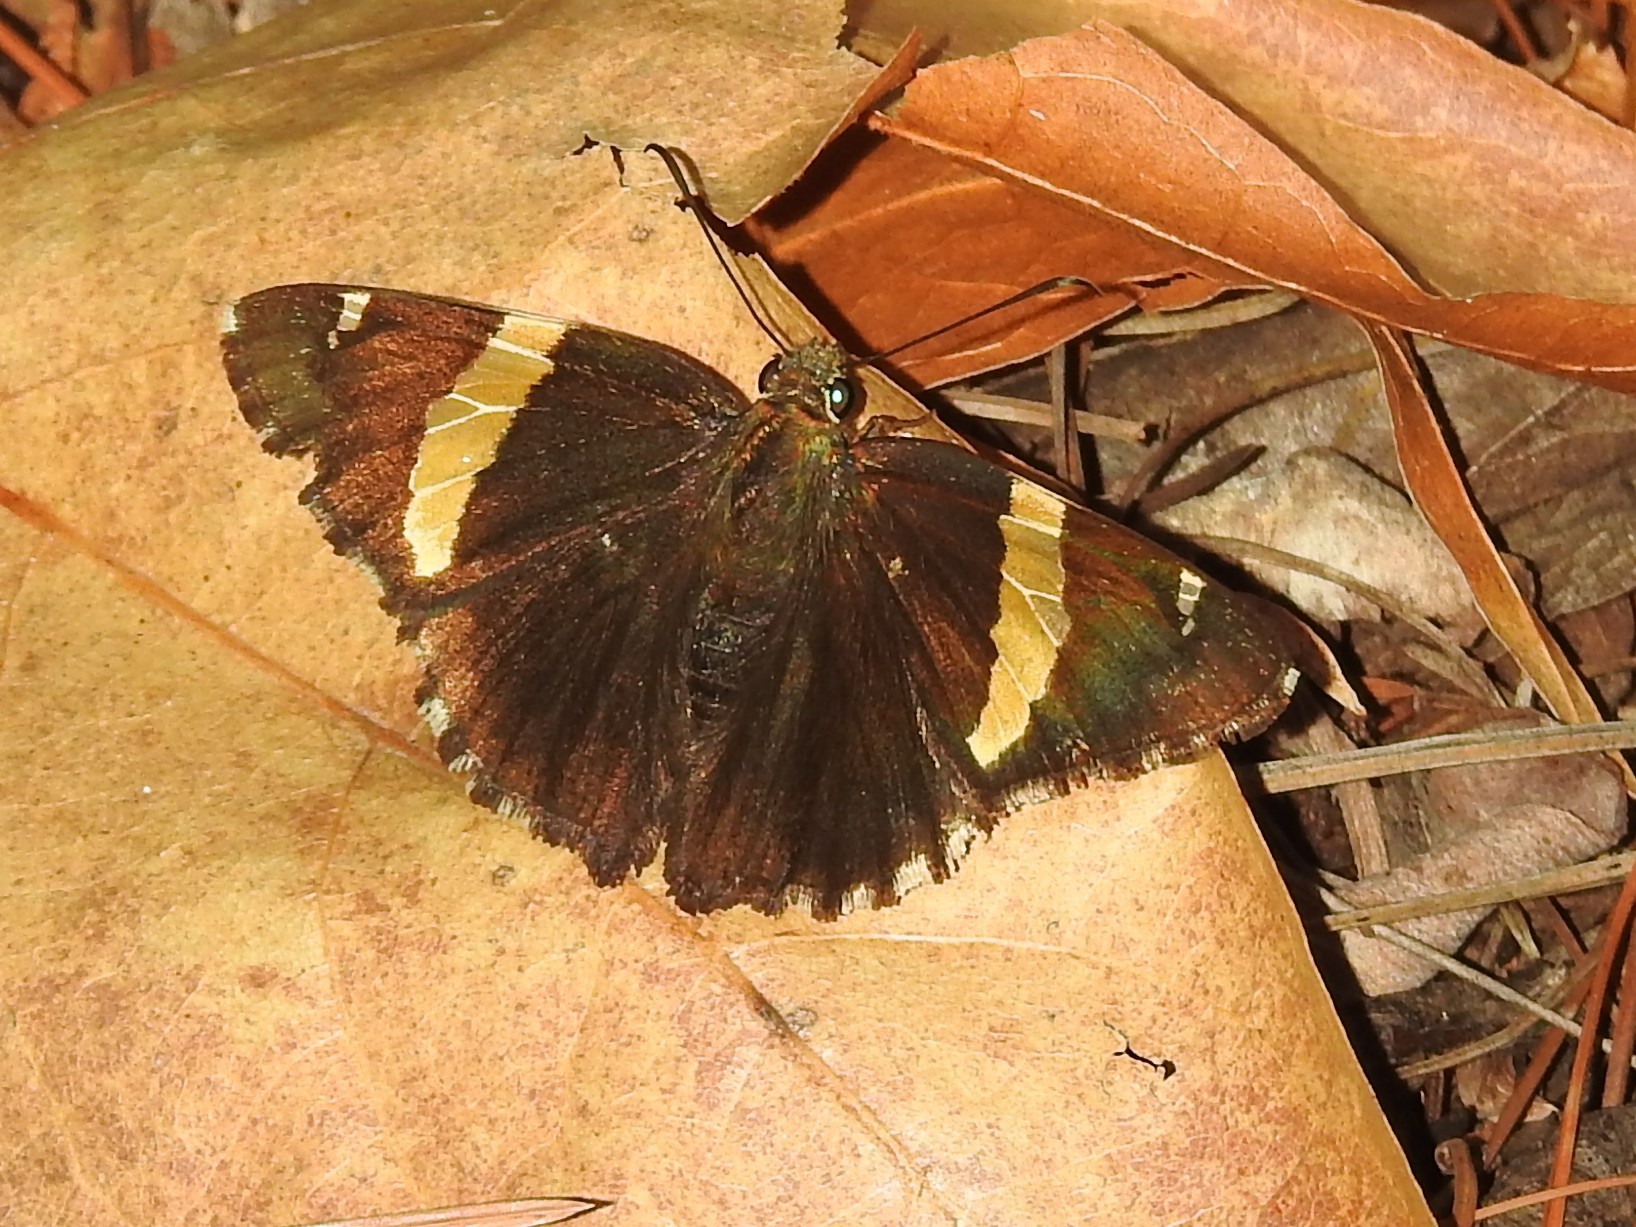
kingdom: Animalia
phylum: Arthropoda
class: Arachnida
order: Scorpiones
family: Bothriuridae
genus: Telegonus
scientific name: Telegonus cellus
